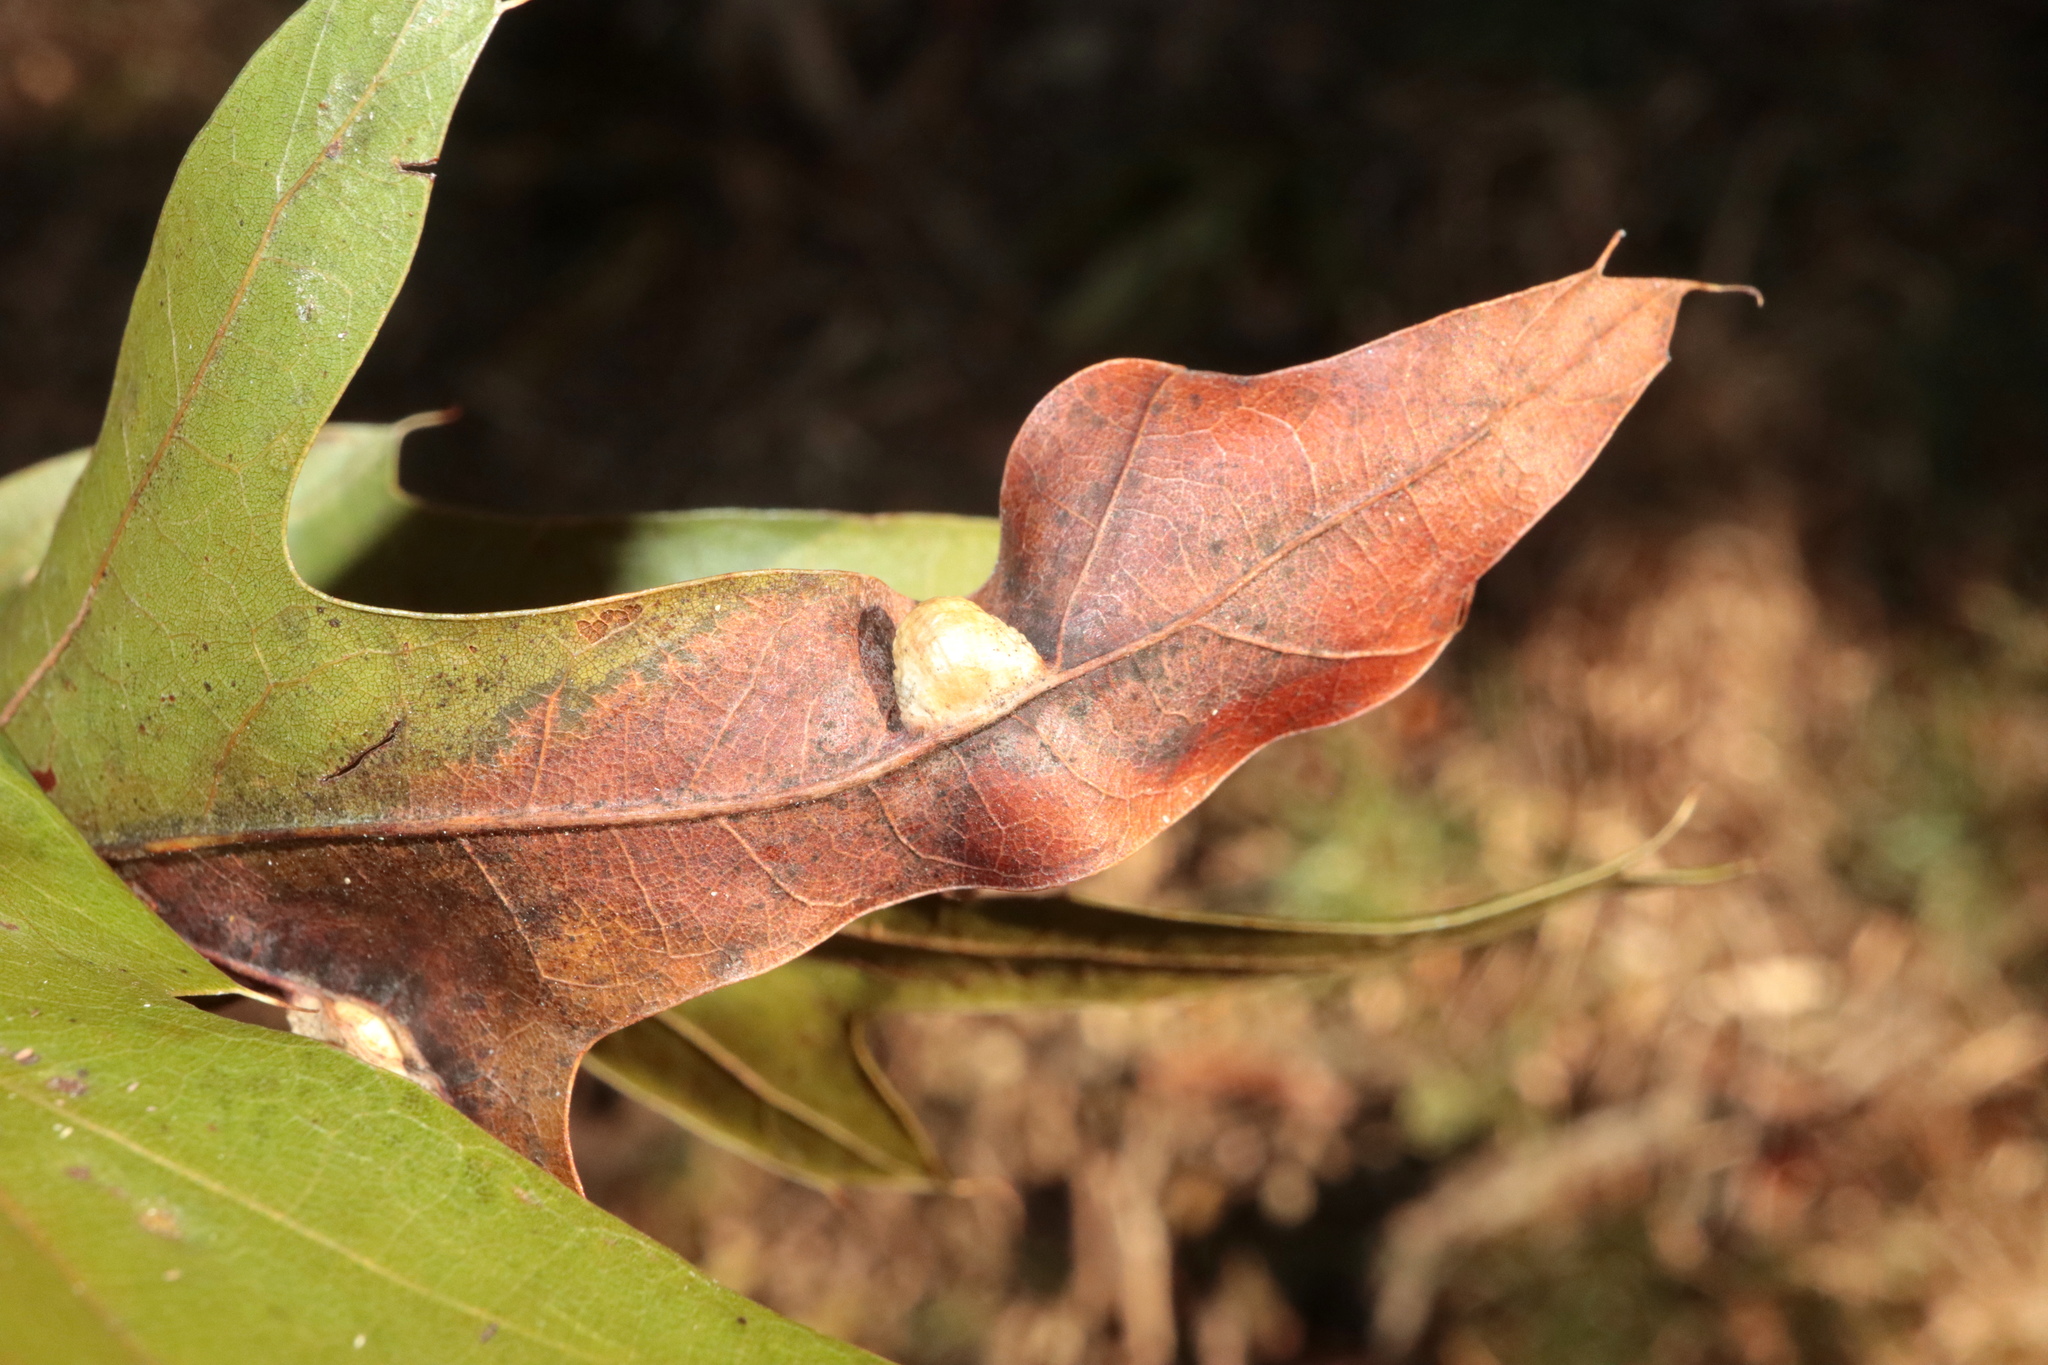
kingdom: Animalia
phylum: Arthropoda
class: Insecta
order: Diptera
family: Cecidomyiidae
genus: Macrodiplosis
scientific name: Macrodiplosis majalis
